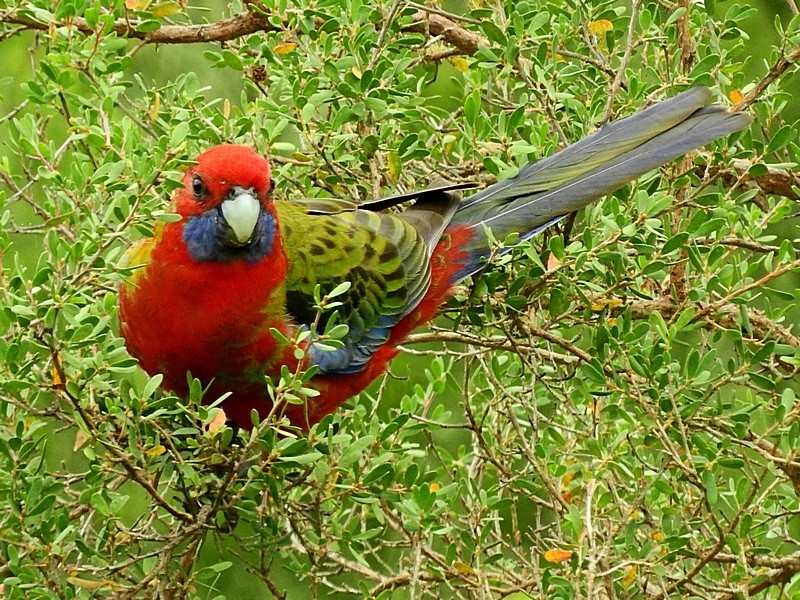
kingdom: Animalia
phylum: Chordata
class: Aves
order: Psittaciformes
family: Psittacidae
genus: Platycercus
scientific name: Platycercus elegans
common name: Crimson rosella
